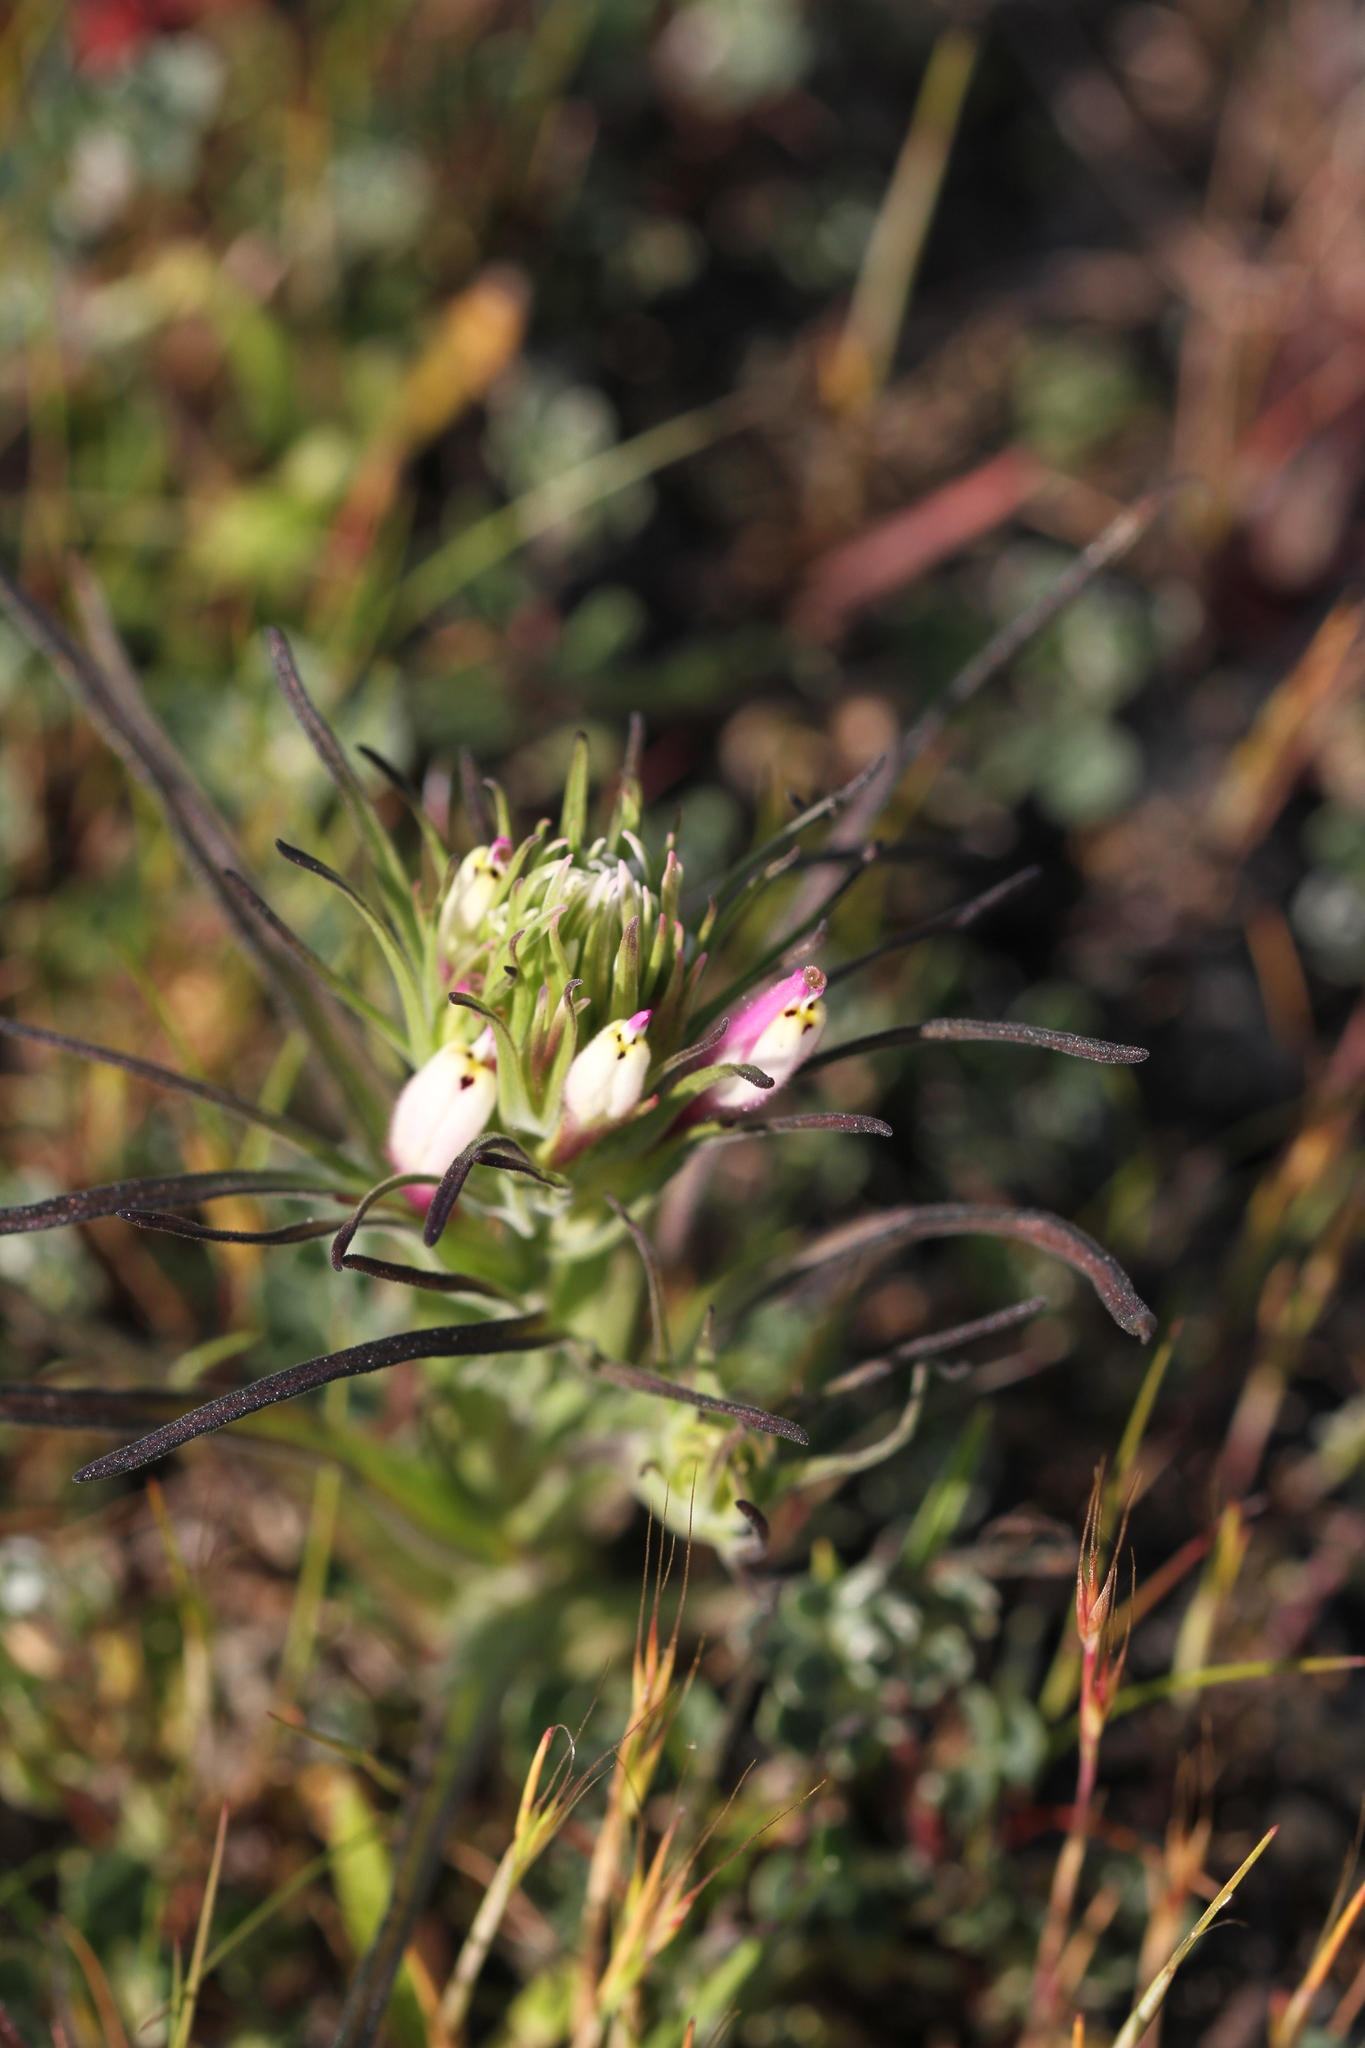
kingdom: Plantae
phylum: Tracheophyta
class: Magnoliopsida
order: Lamiales
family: Orobanchaceae
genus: Castilleja
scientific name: Castilleja densiflora
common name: Dense-flower indian paintbrush
